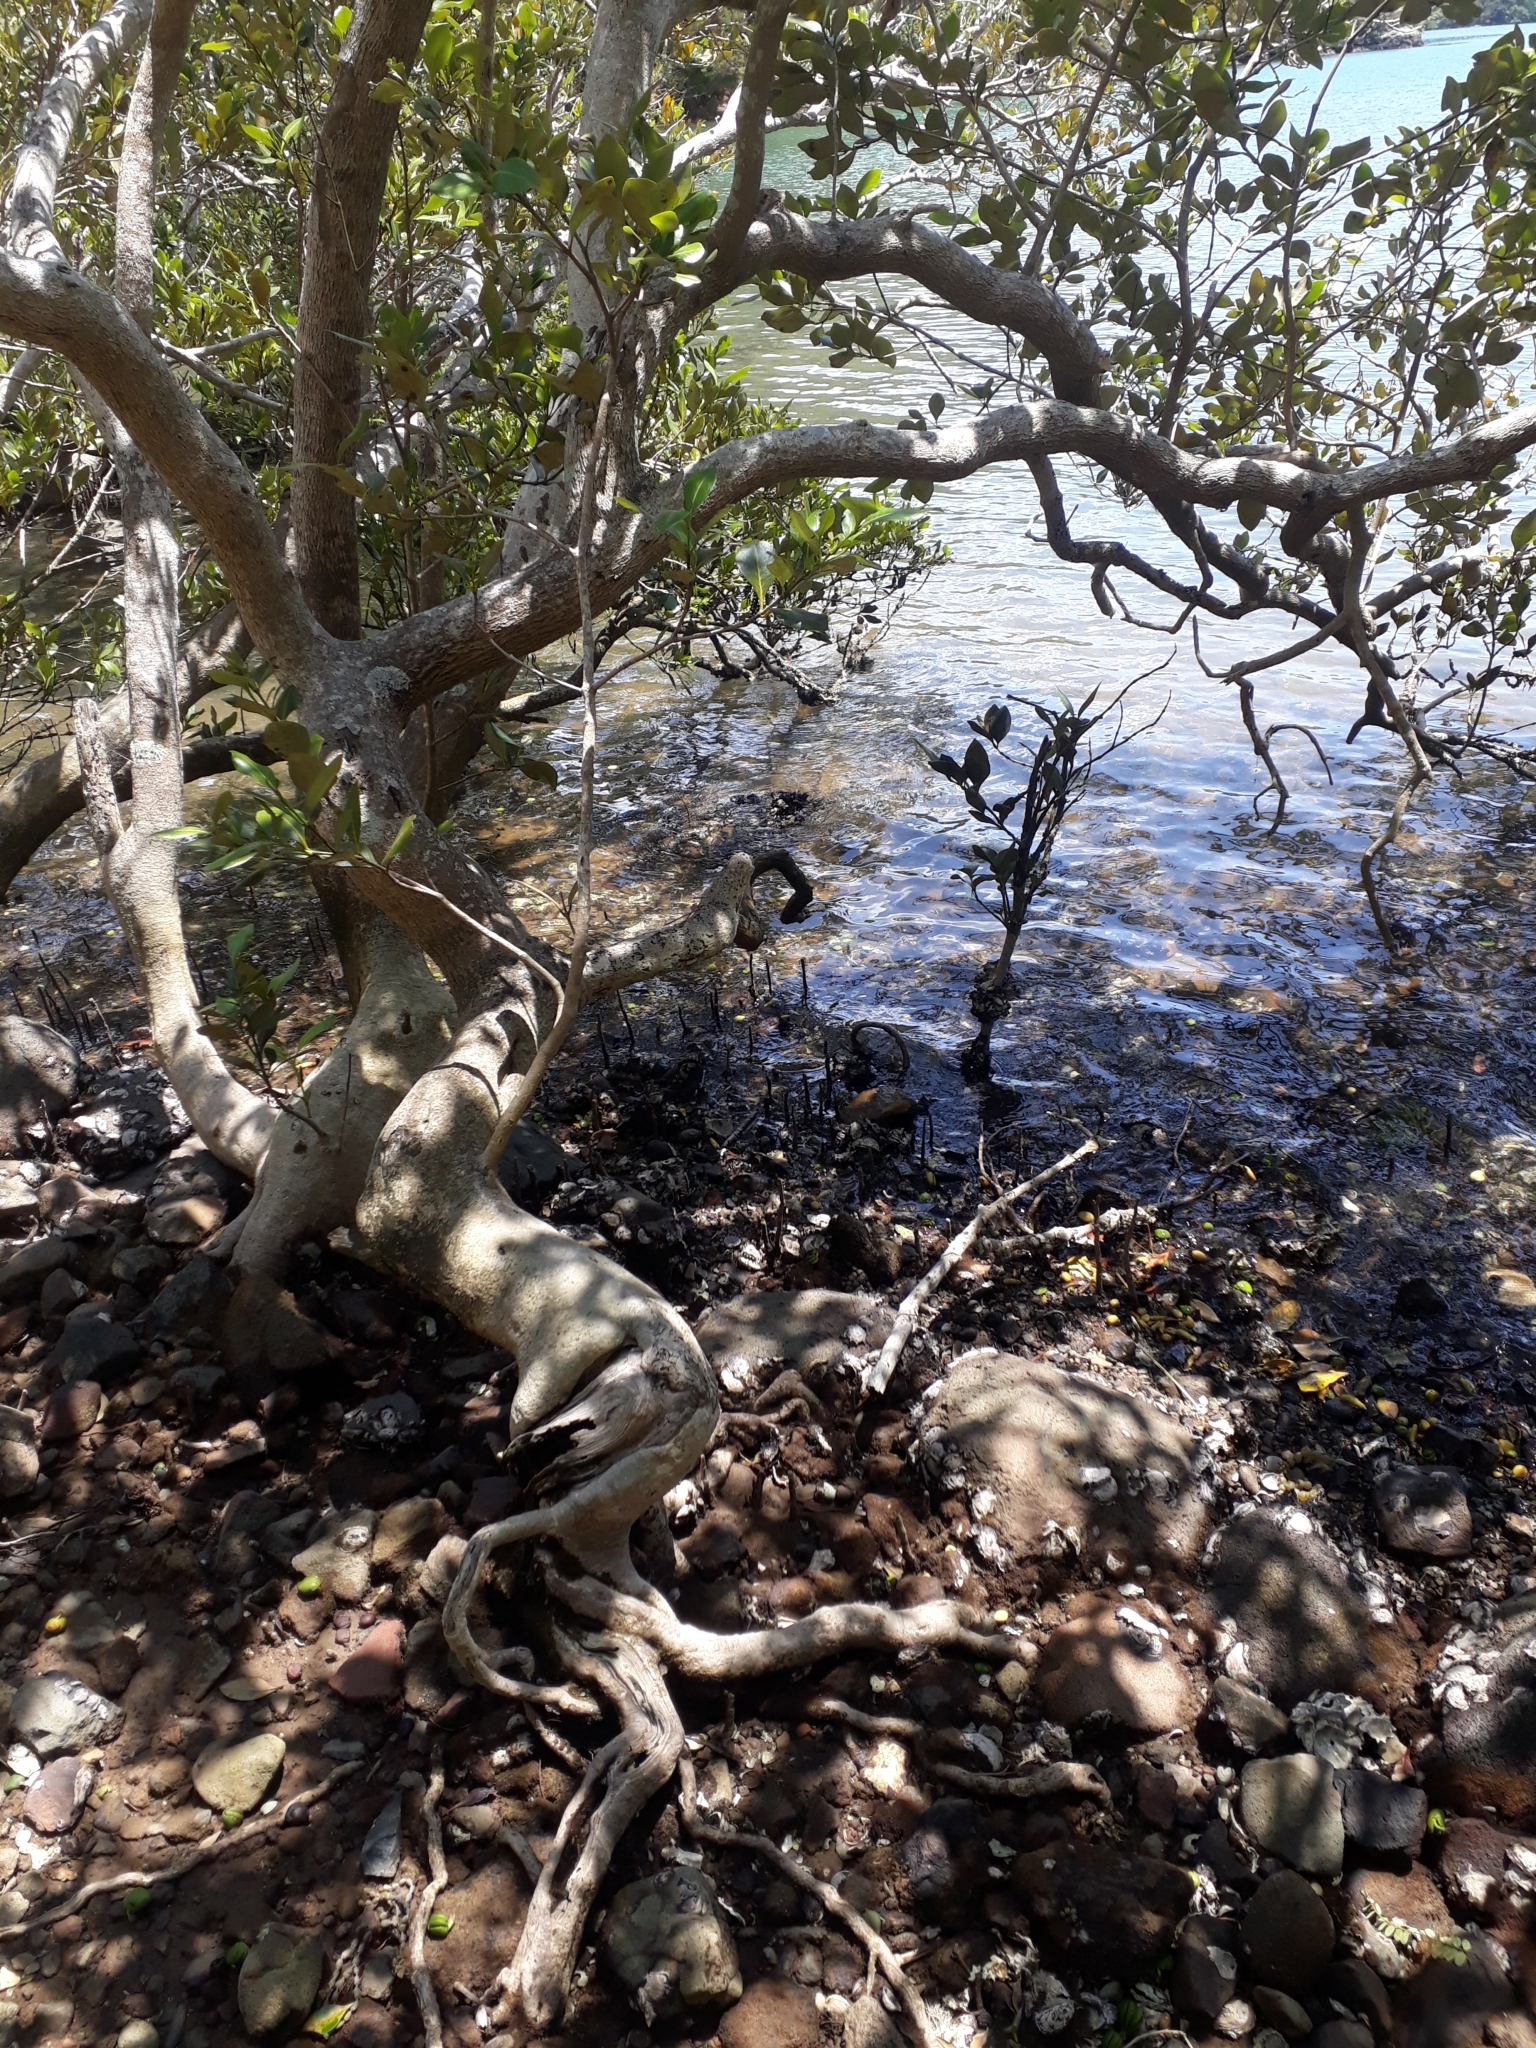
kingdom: Plantae
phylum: Tracheophyta
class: Magnoliopsida
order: Lamiales
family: Acanthaceae
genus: Avicennia
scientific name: Avicennia marina
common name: Gray mangrove
